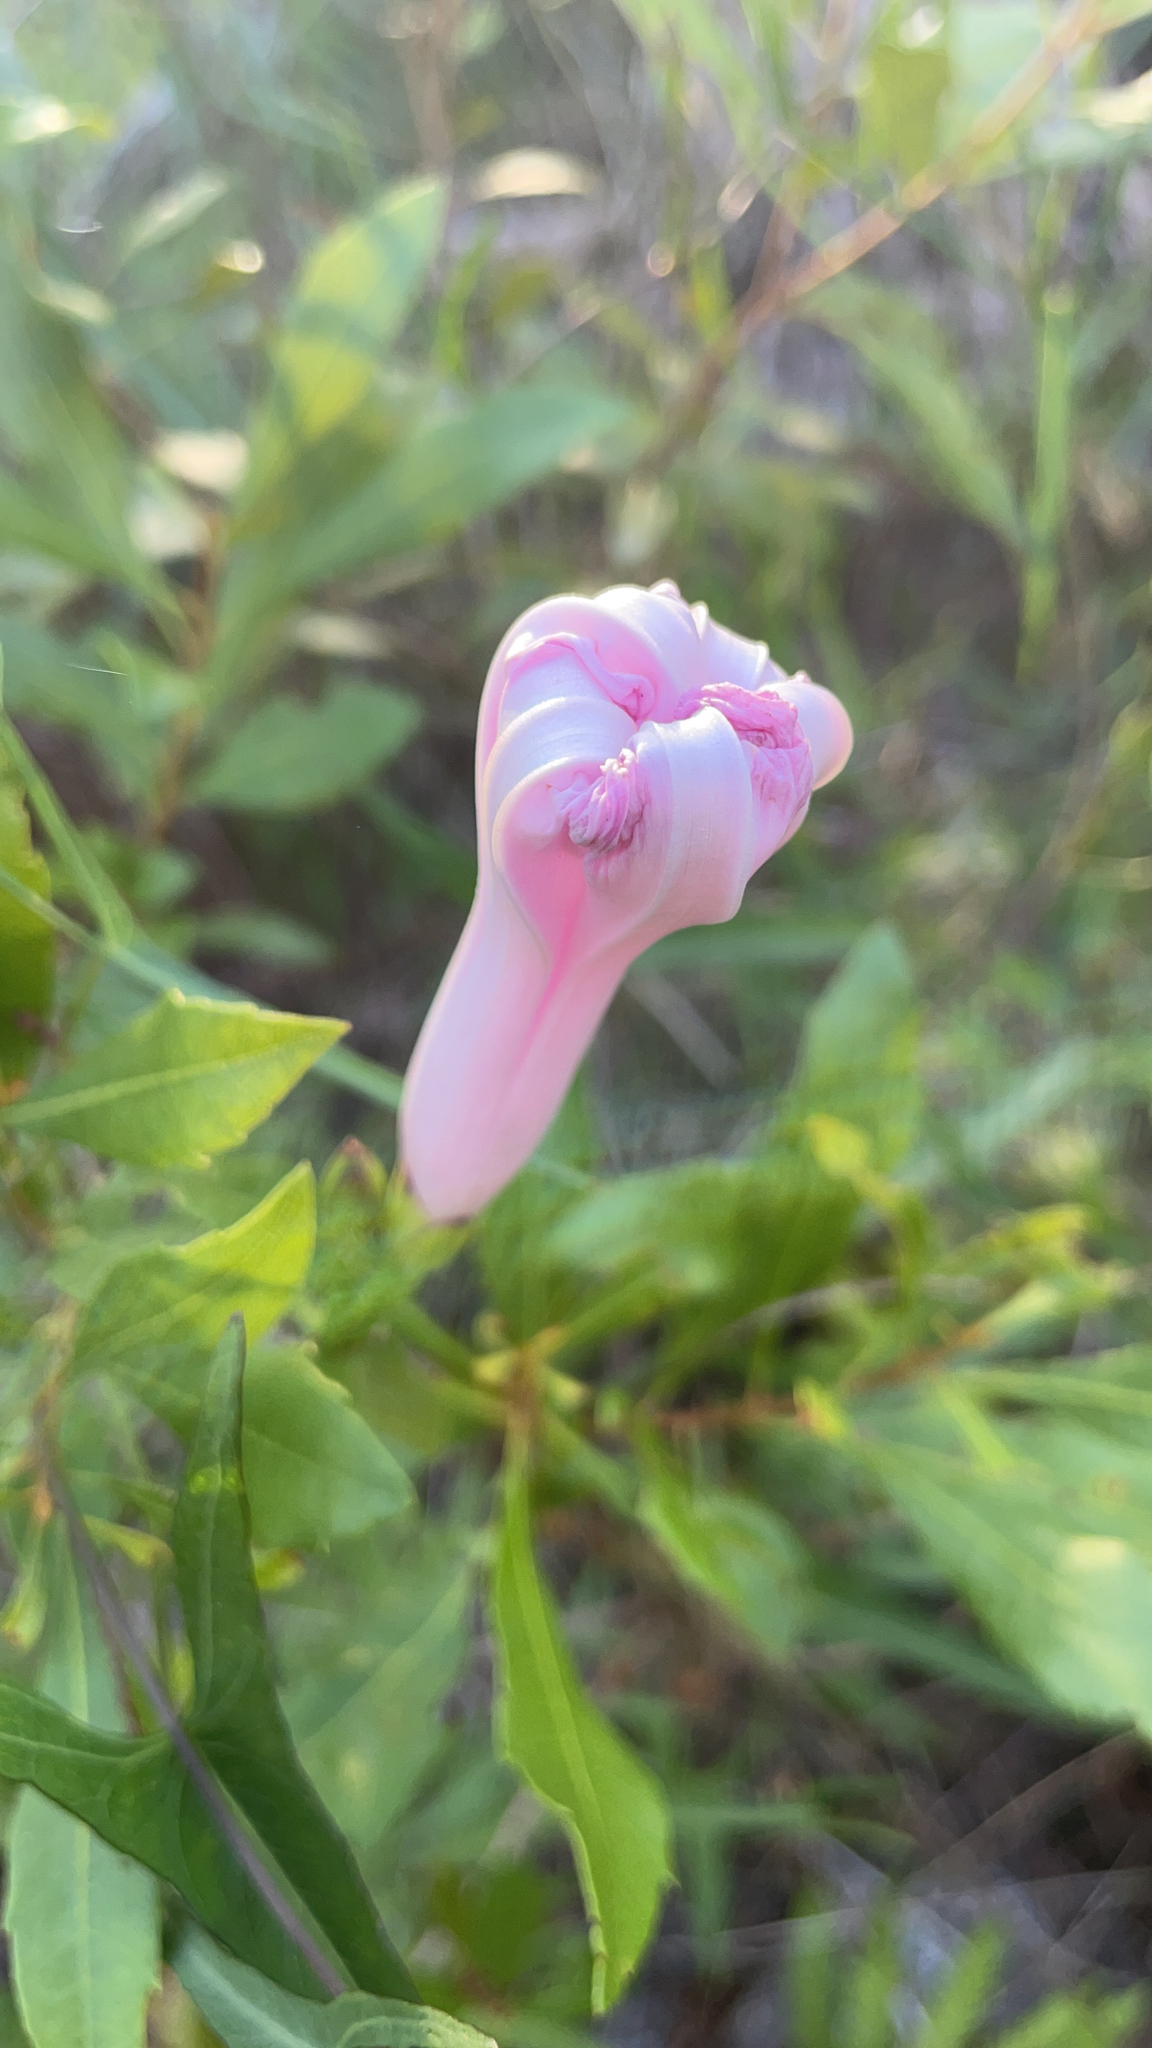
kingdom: Plantae
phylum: Tracheophyta
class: Magnoliopsida
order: Solanales
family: Convolvulaceae
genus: Ipomoea
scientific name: Ipomoea sagittata
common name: Saltmarsh morning glory
